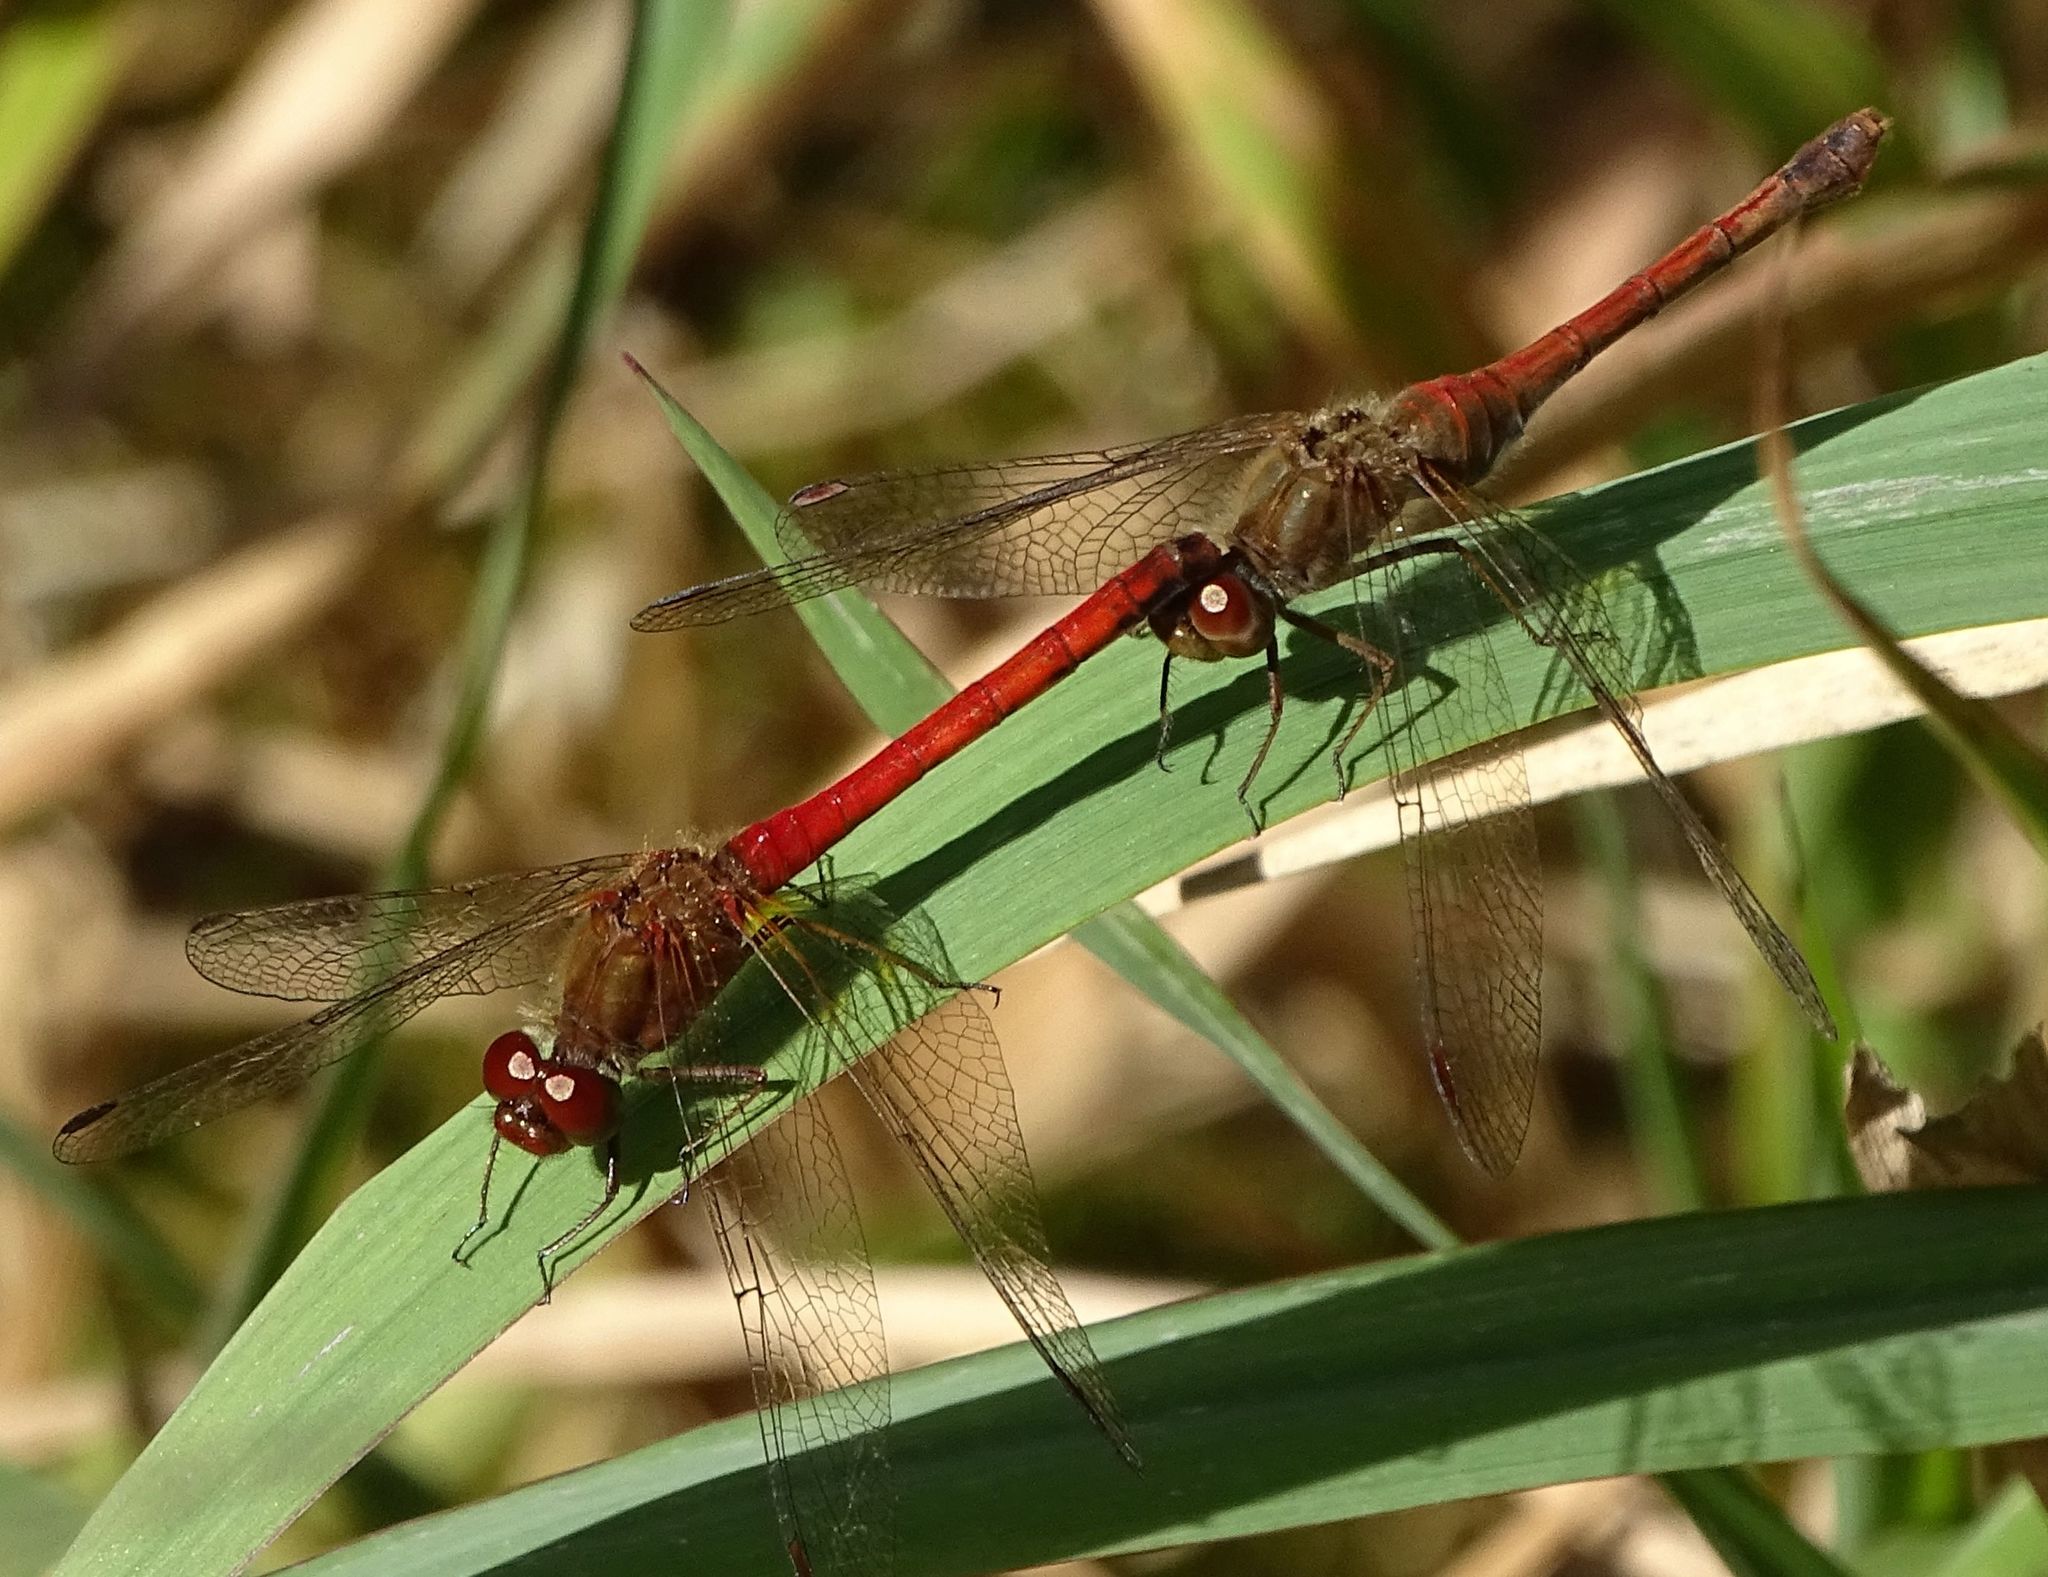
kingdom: Animalia
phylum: Arthropoda
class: Insecta
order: Odonata
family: Libellulidae
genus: Sympetrum
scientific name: Sympetrum vicinum
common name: Autumn meadowhawk
